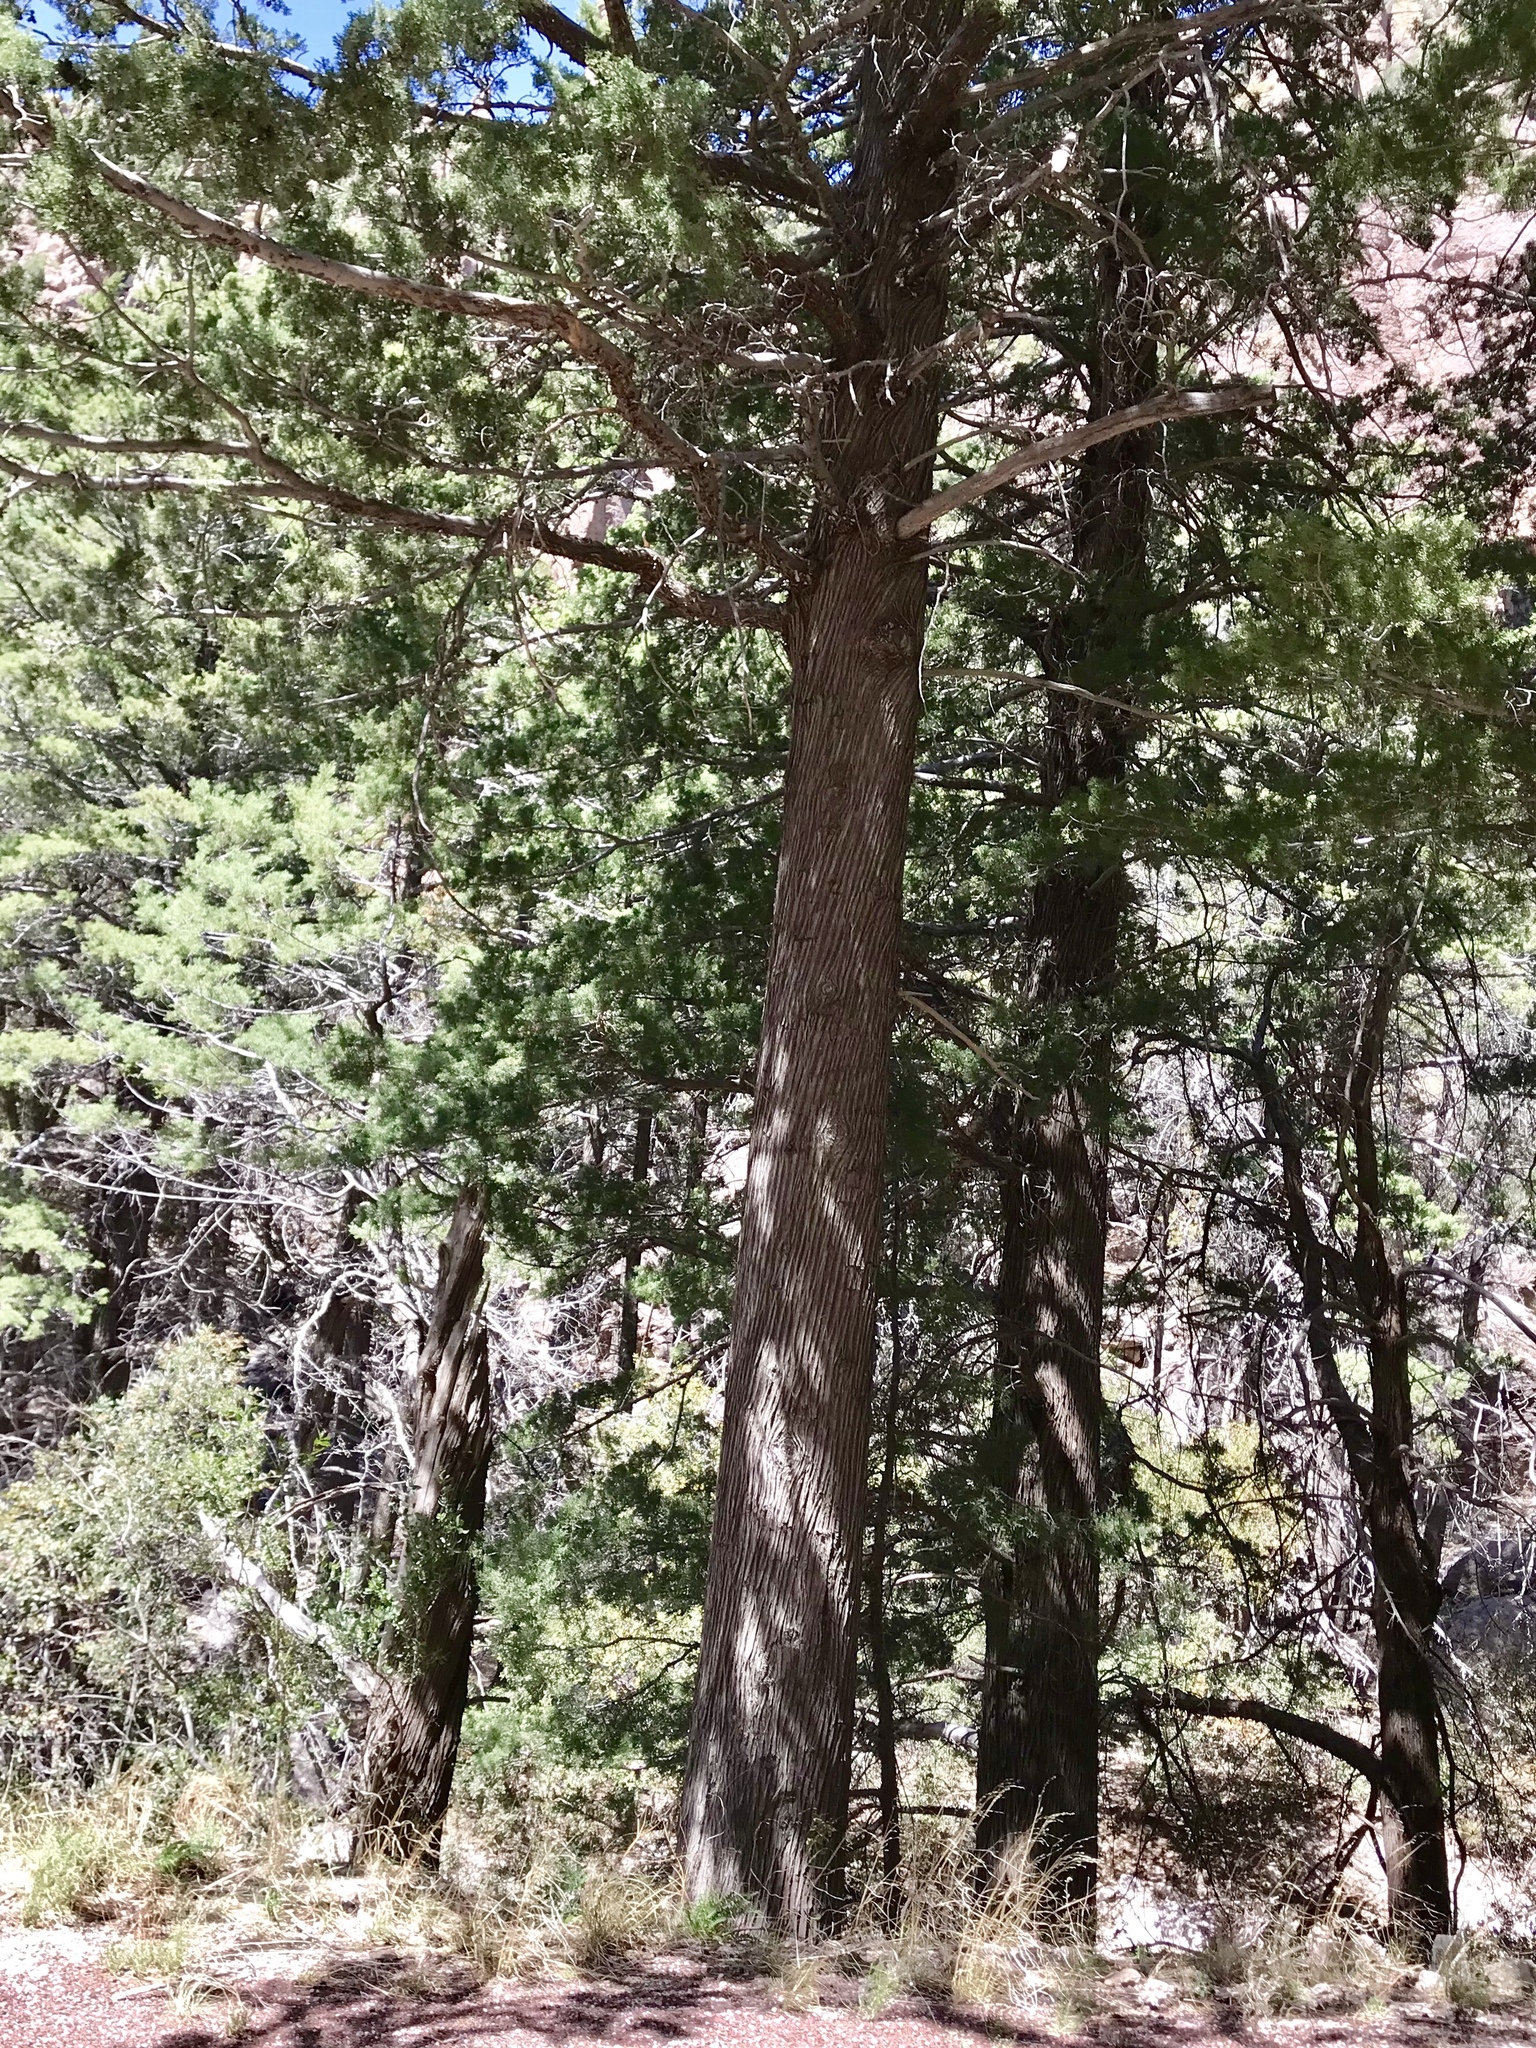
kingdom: Plantae
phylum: Tracheophyta
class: Pinopsida
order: Pinales
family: Cupressaceae
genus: Cupressus
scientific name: Cupressus arizonica
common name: Arizona cypress
